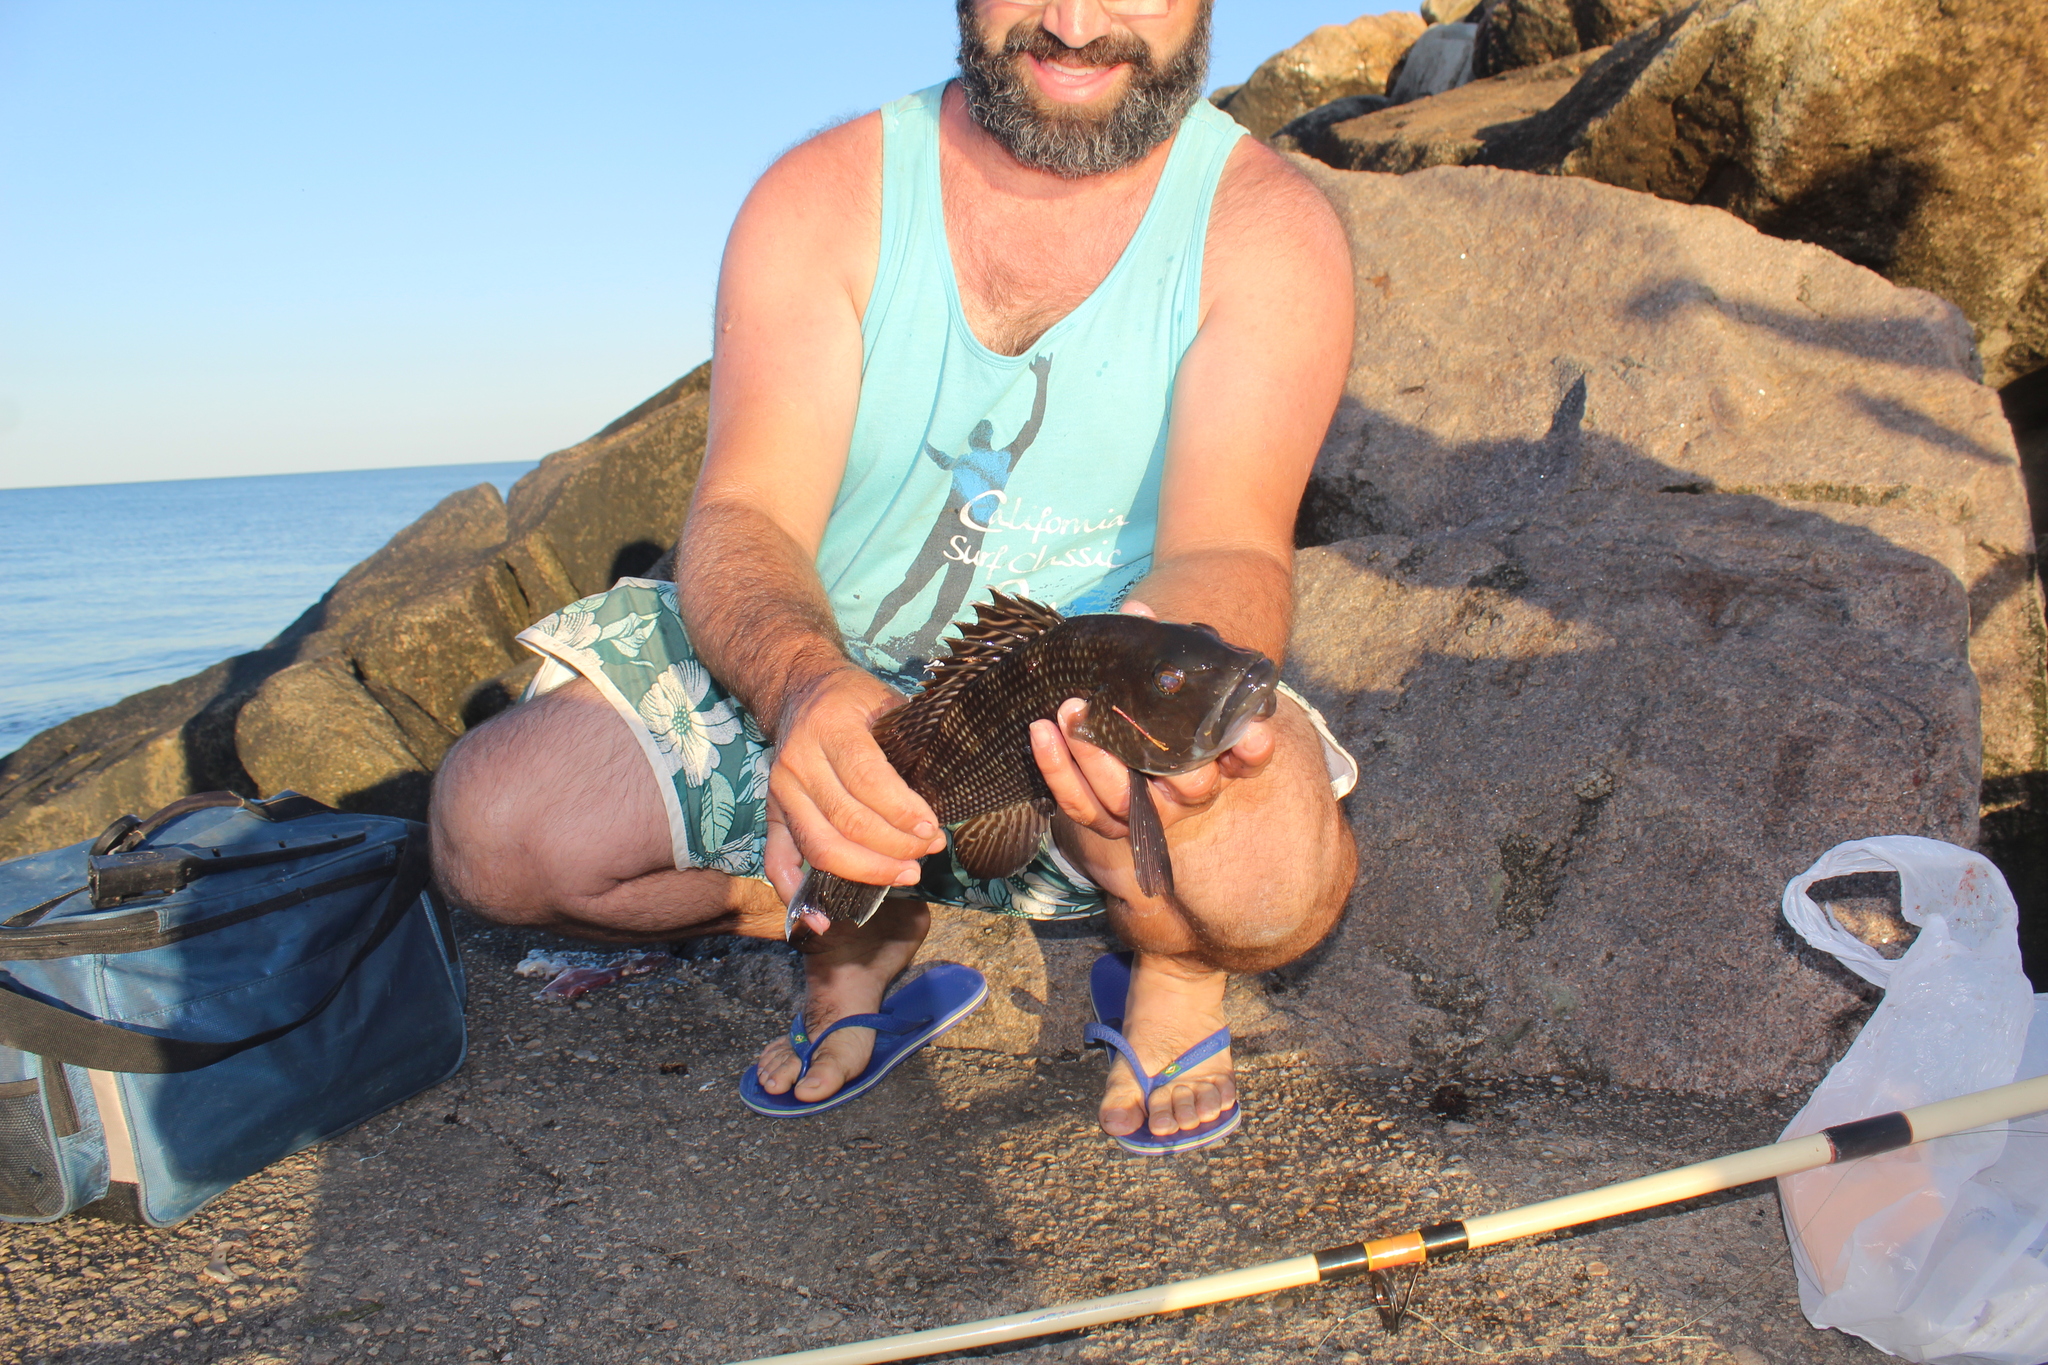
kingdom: Animalia
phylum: Chordata
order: Perciformes
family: Serranidae
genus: Centropristis
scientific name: Centropristis striata
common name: Black sea bass
